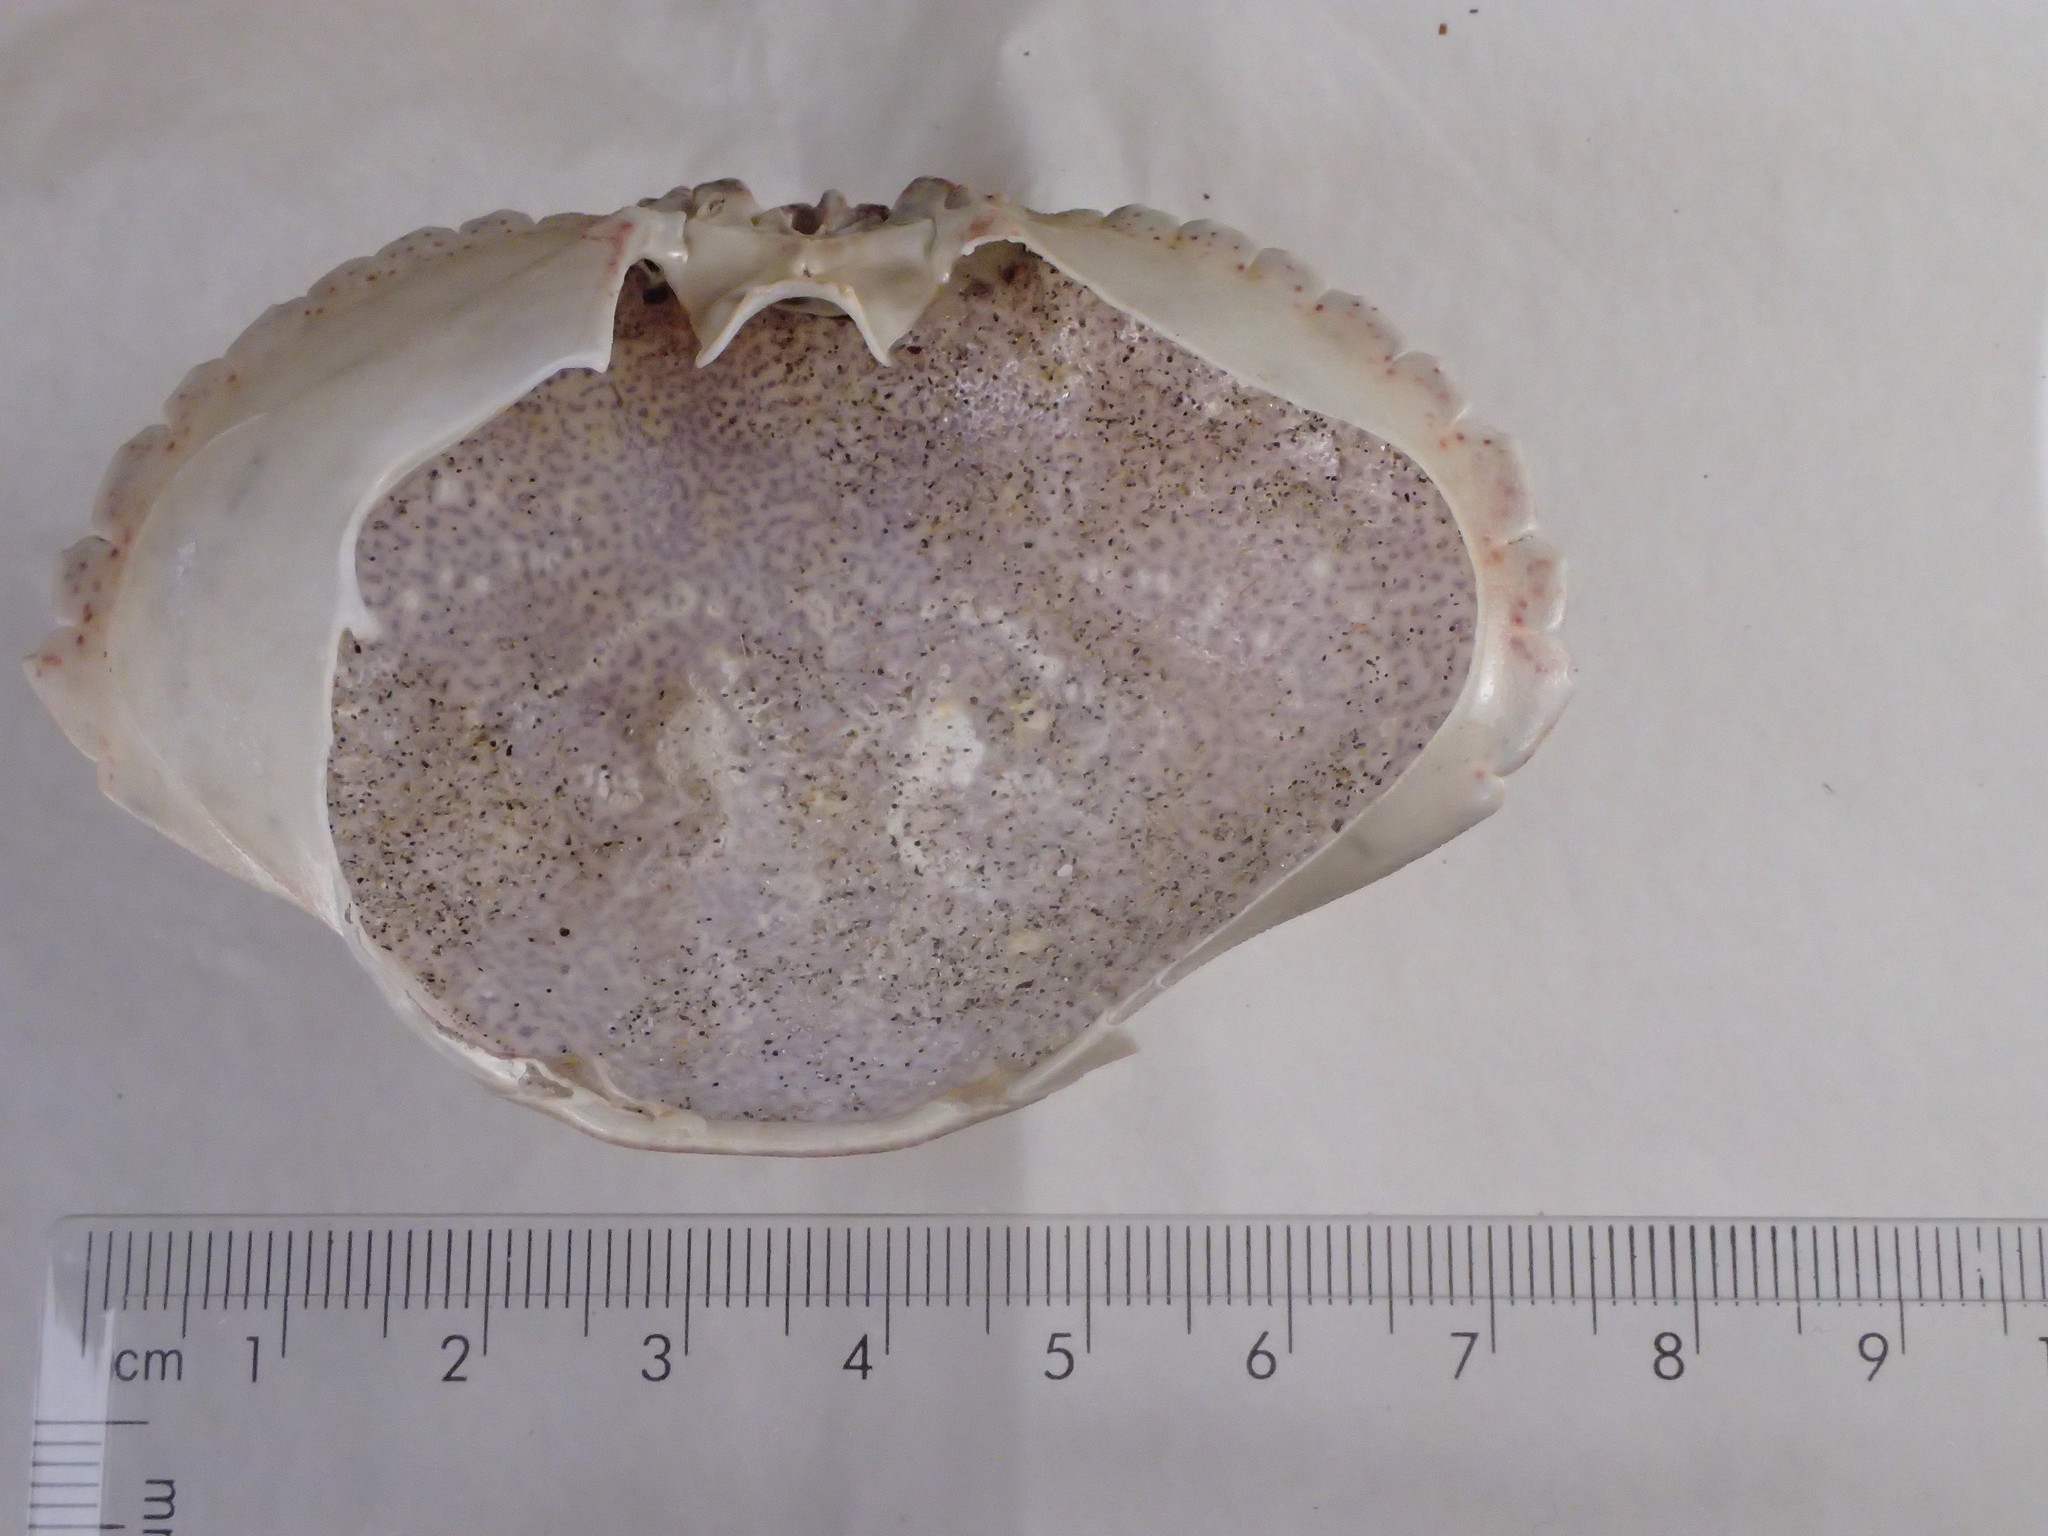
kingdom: Animalia
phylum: Arthropoda
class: Malacostraca
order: Decapoda
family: Cancridae
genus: Cancer
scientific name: Cancer irroratus
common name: Atlantic rock crab
